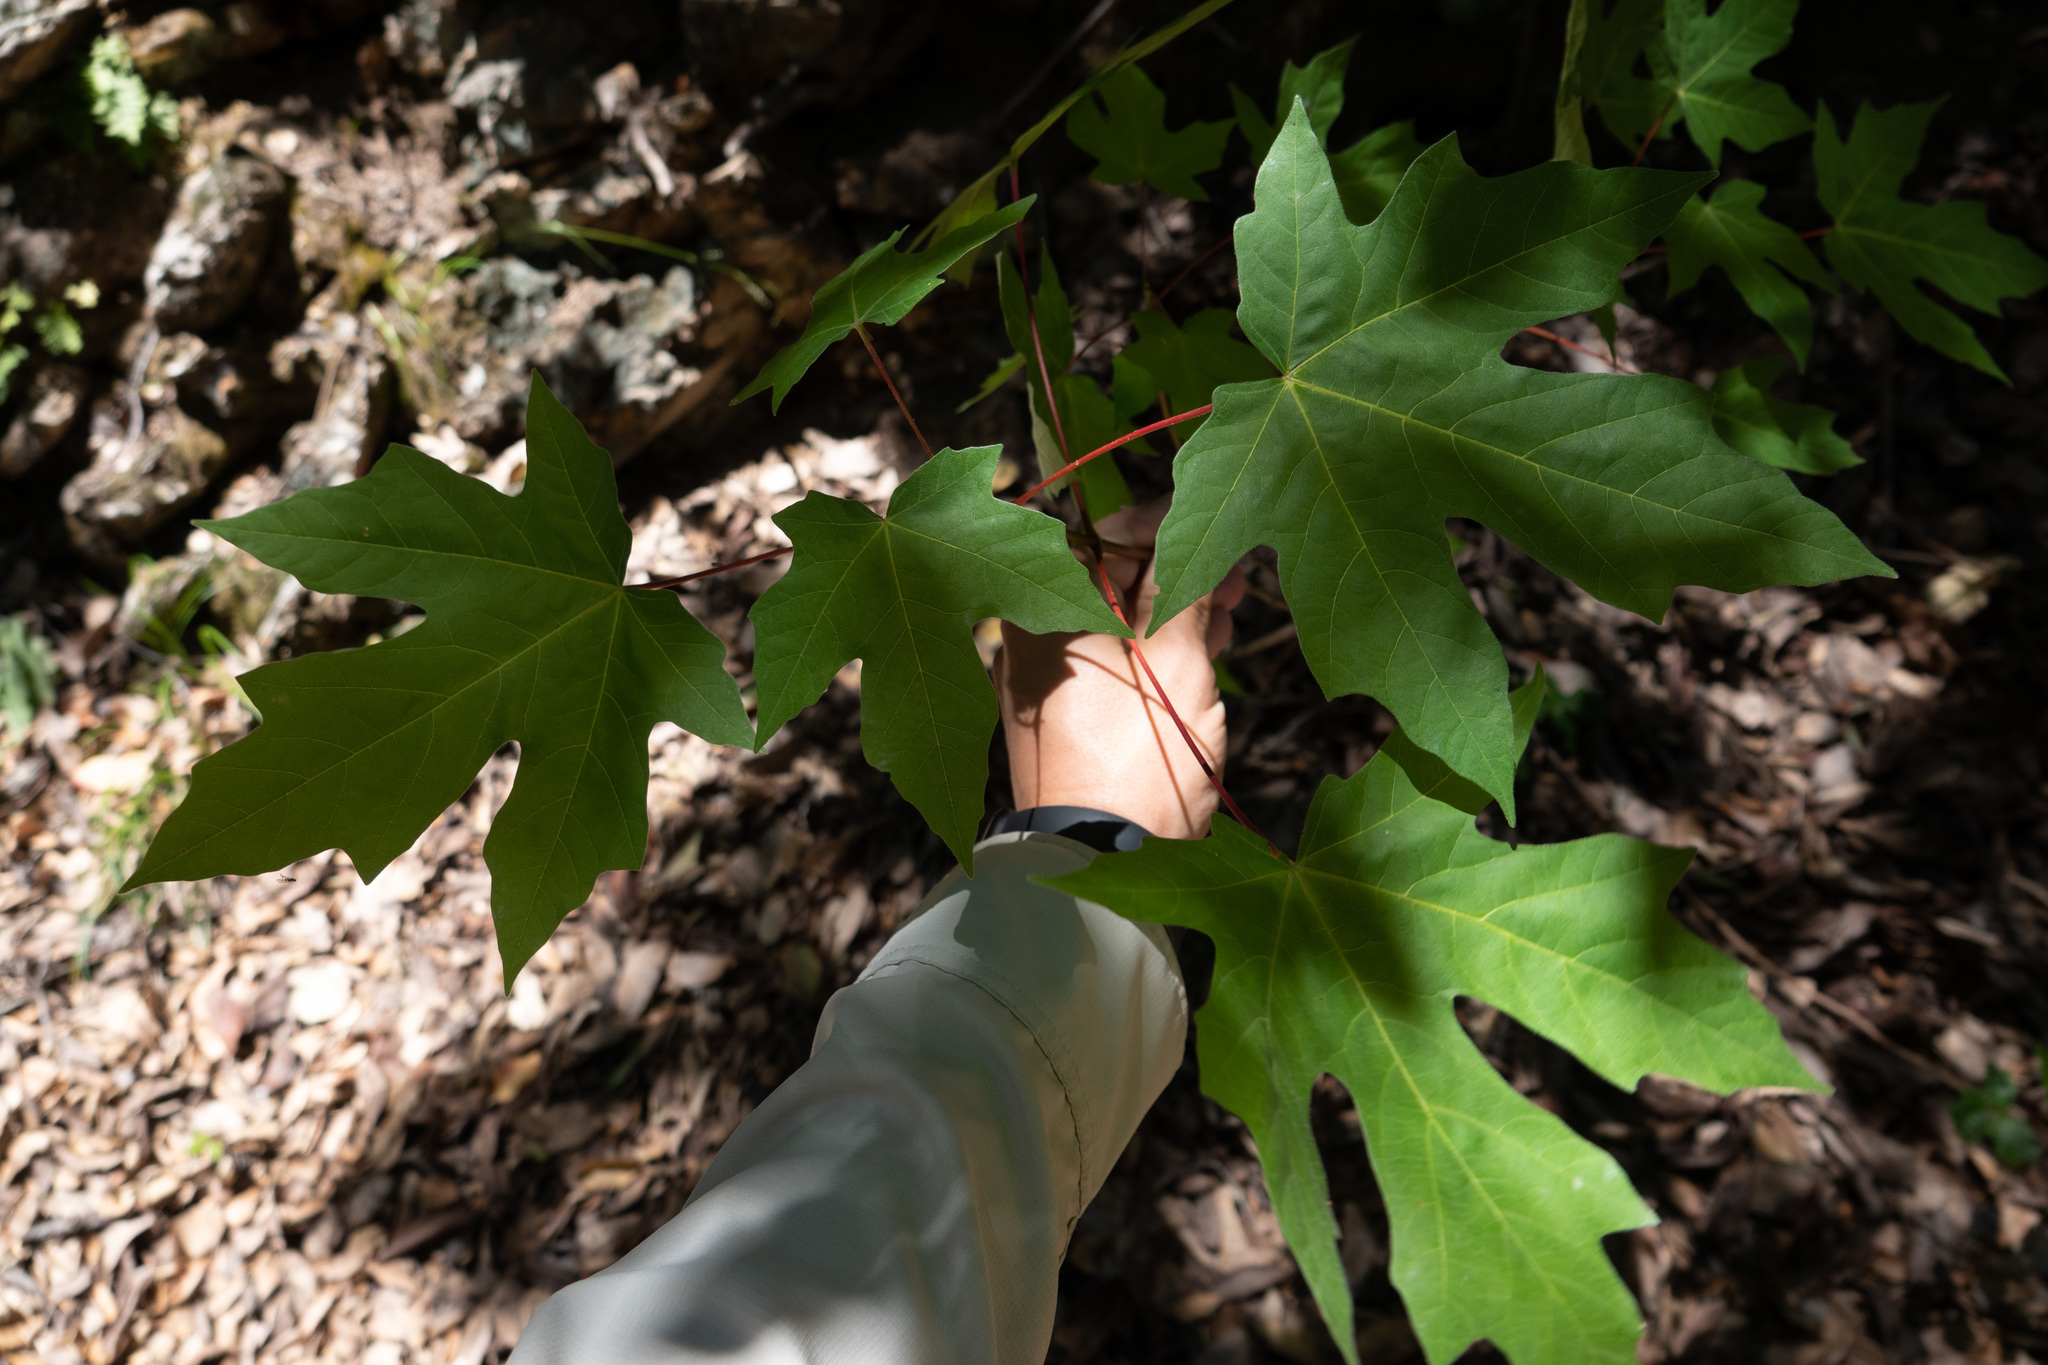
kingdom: Plantae
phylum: Tracheophyta
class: Magnoliopsida
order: Sapindales
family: Sapindaceae
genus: Acer
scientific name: Acer macrophyllum
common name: Oregon maple
